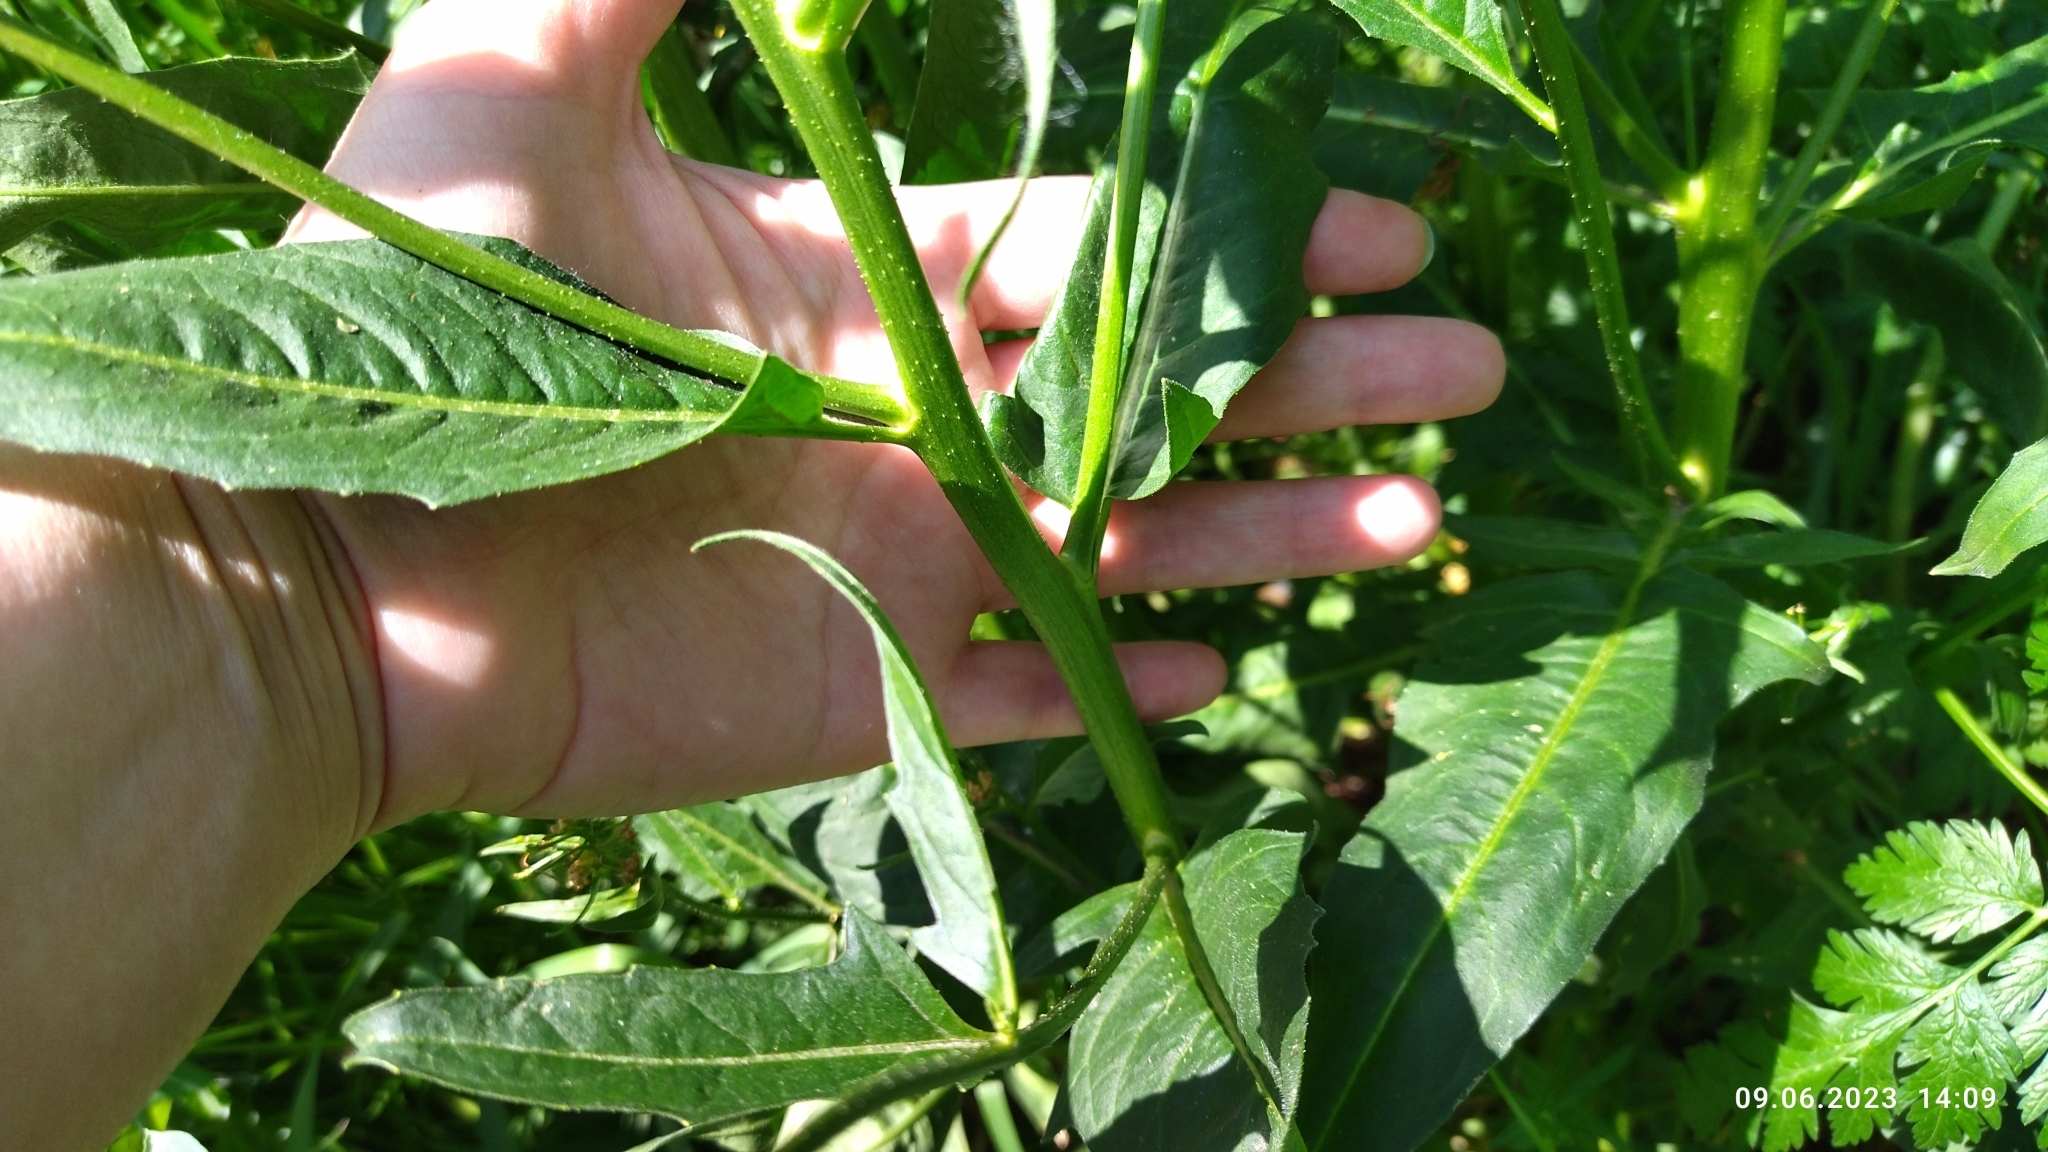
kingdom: Plantae
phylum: Tracheophyta
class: Magnoliopsida
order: Brassicales
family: Brassicaceae
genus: Bunias
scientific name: Bunias orientalis
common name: Warty-cabbage
